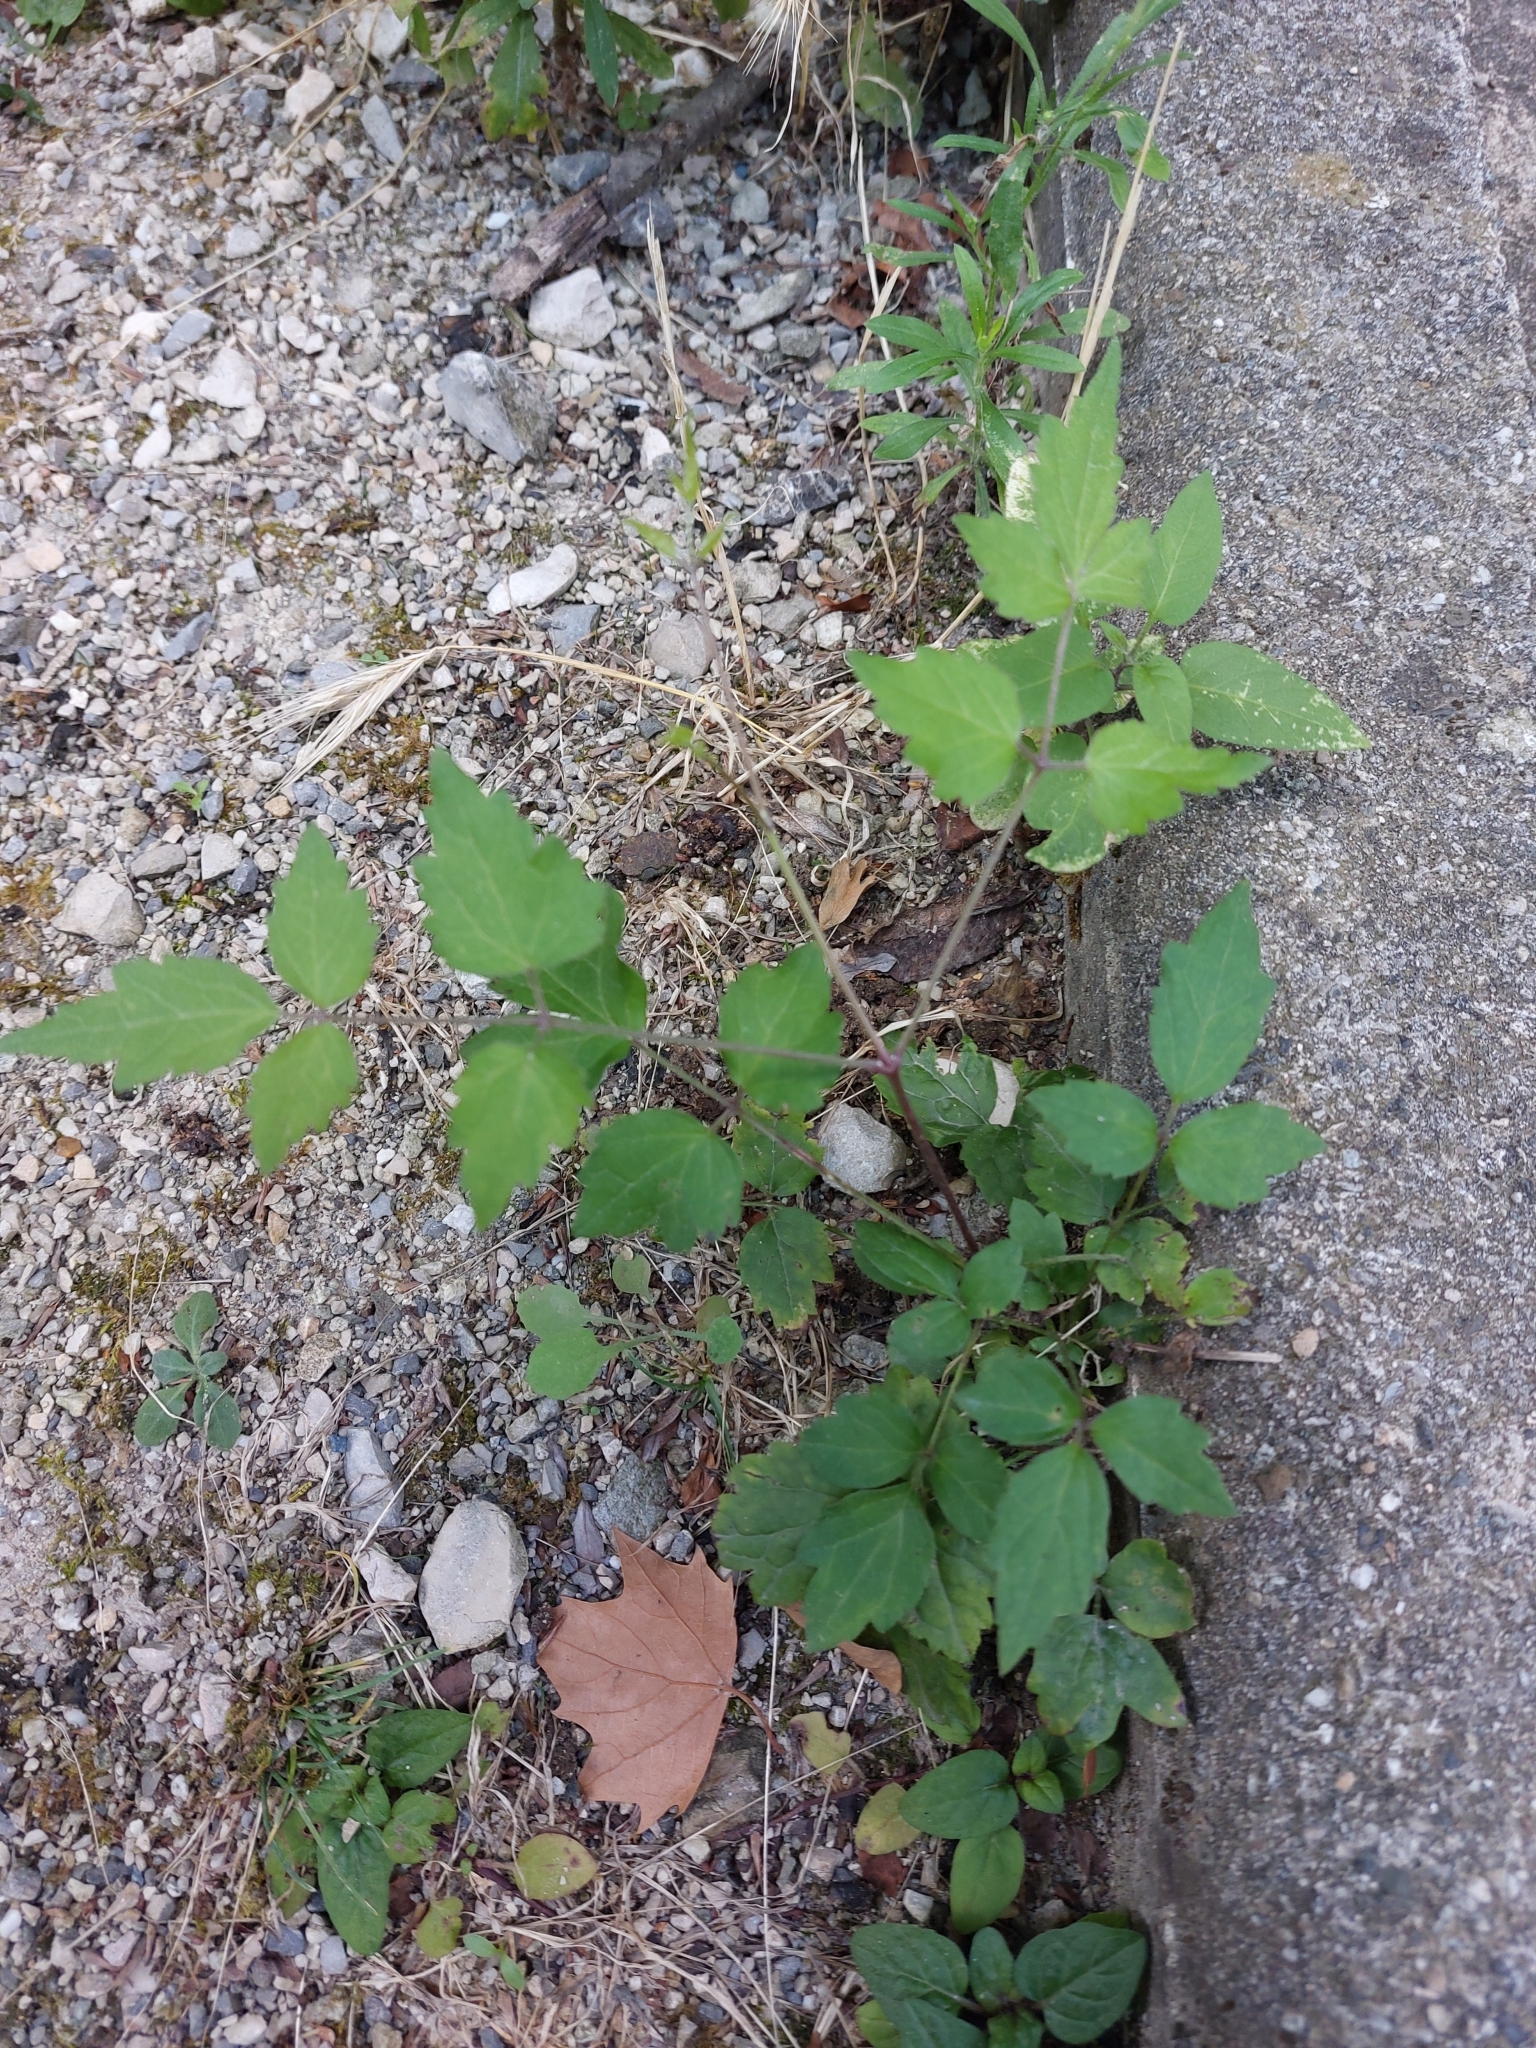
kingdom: Plantae
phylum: Tracheophyta
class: Magnoliopsida
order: Ranunculales
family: Ranunculaceae
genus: Clematis
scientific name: Clematis vitalba
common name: Evergreen clematis
